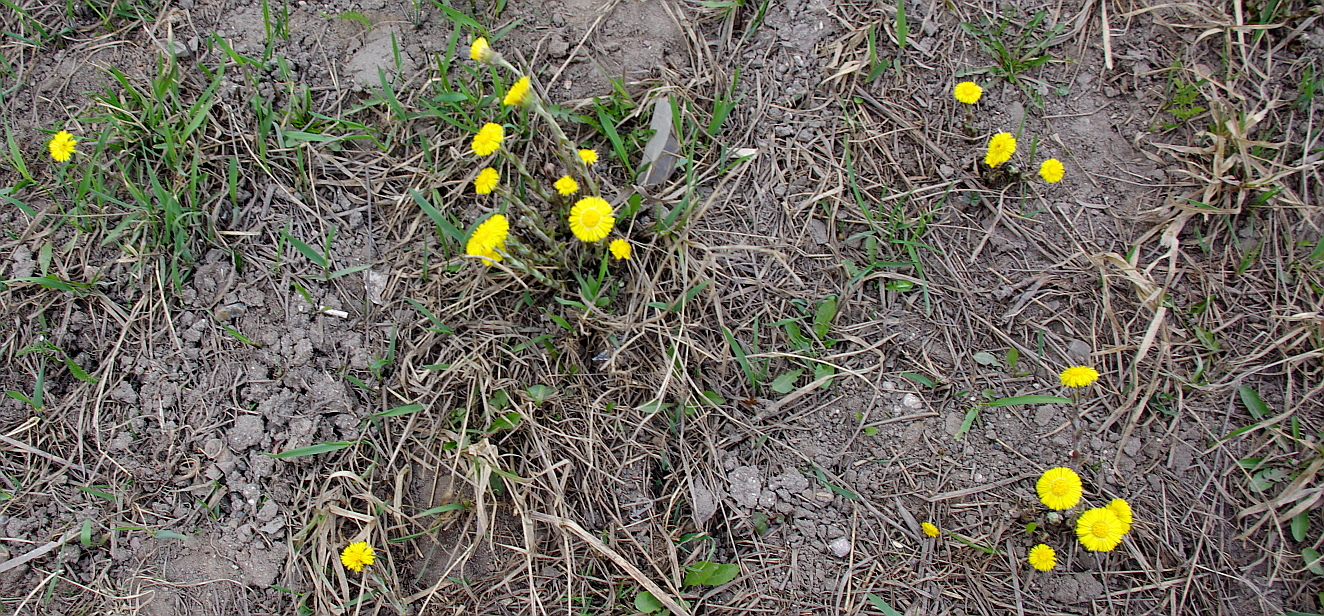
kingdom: Plantae
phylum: Tracheophyta
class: Magnoliopsida
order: Asterales
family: Asteraceae
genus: Tussilago
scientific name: Tussilago farfara
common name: Coltsfoot
